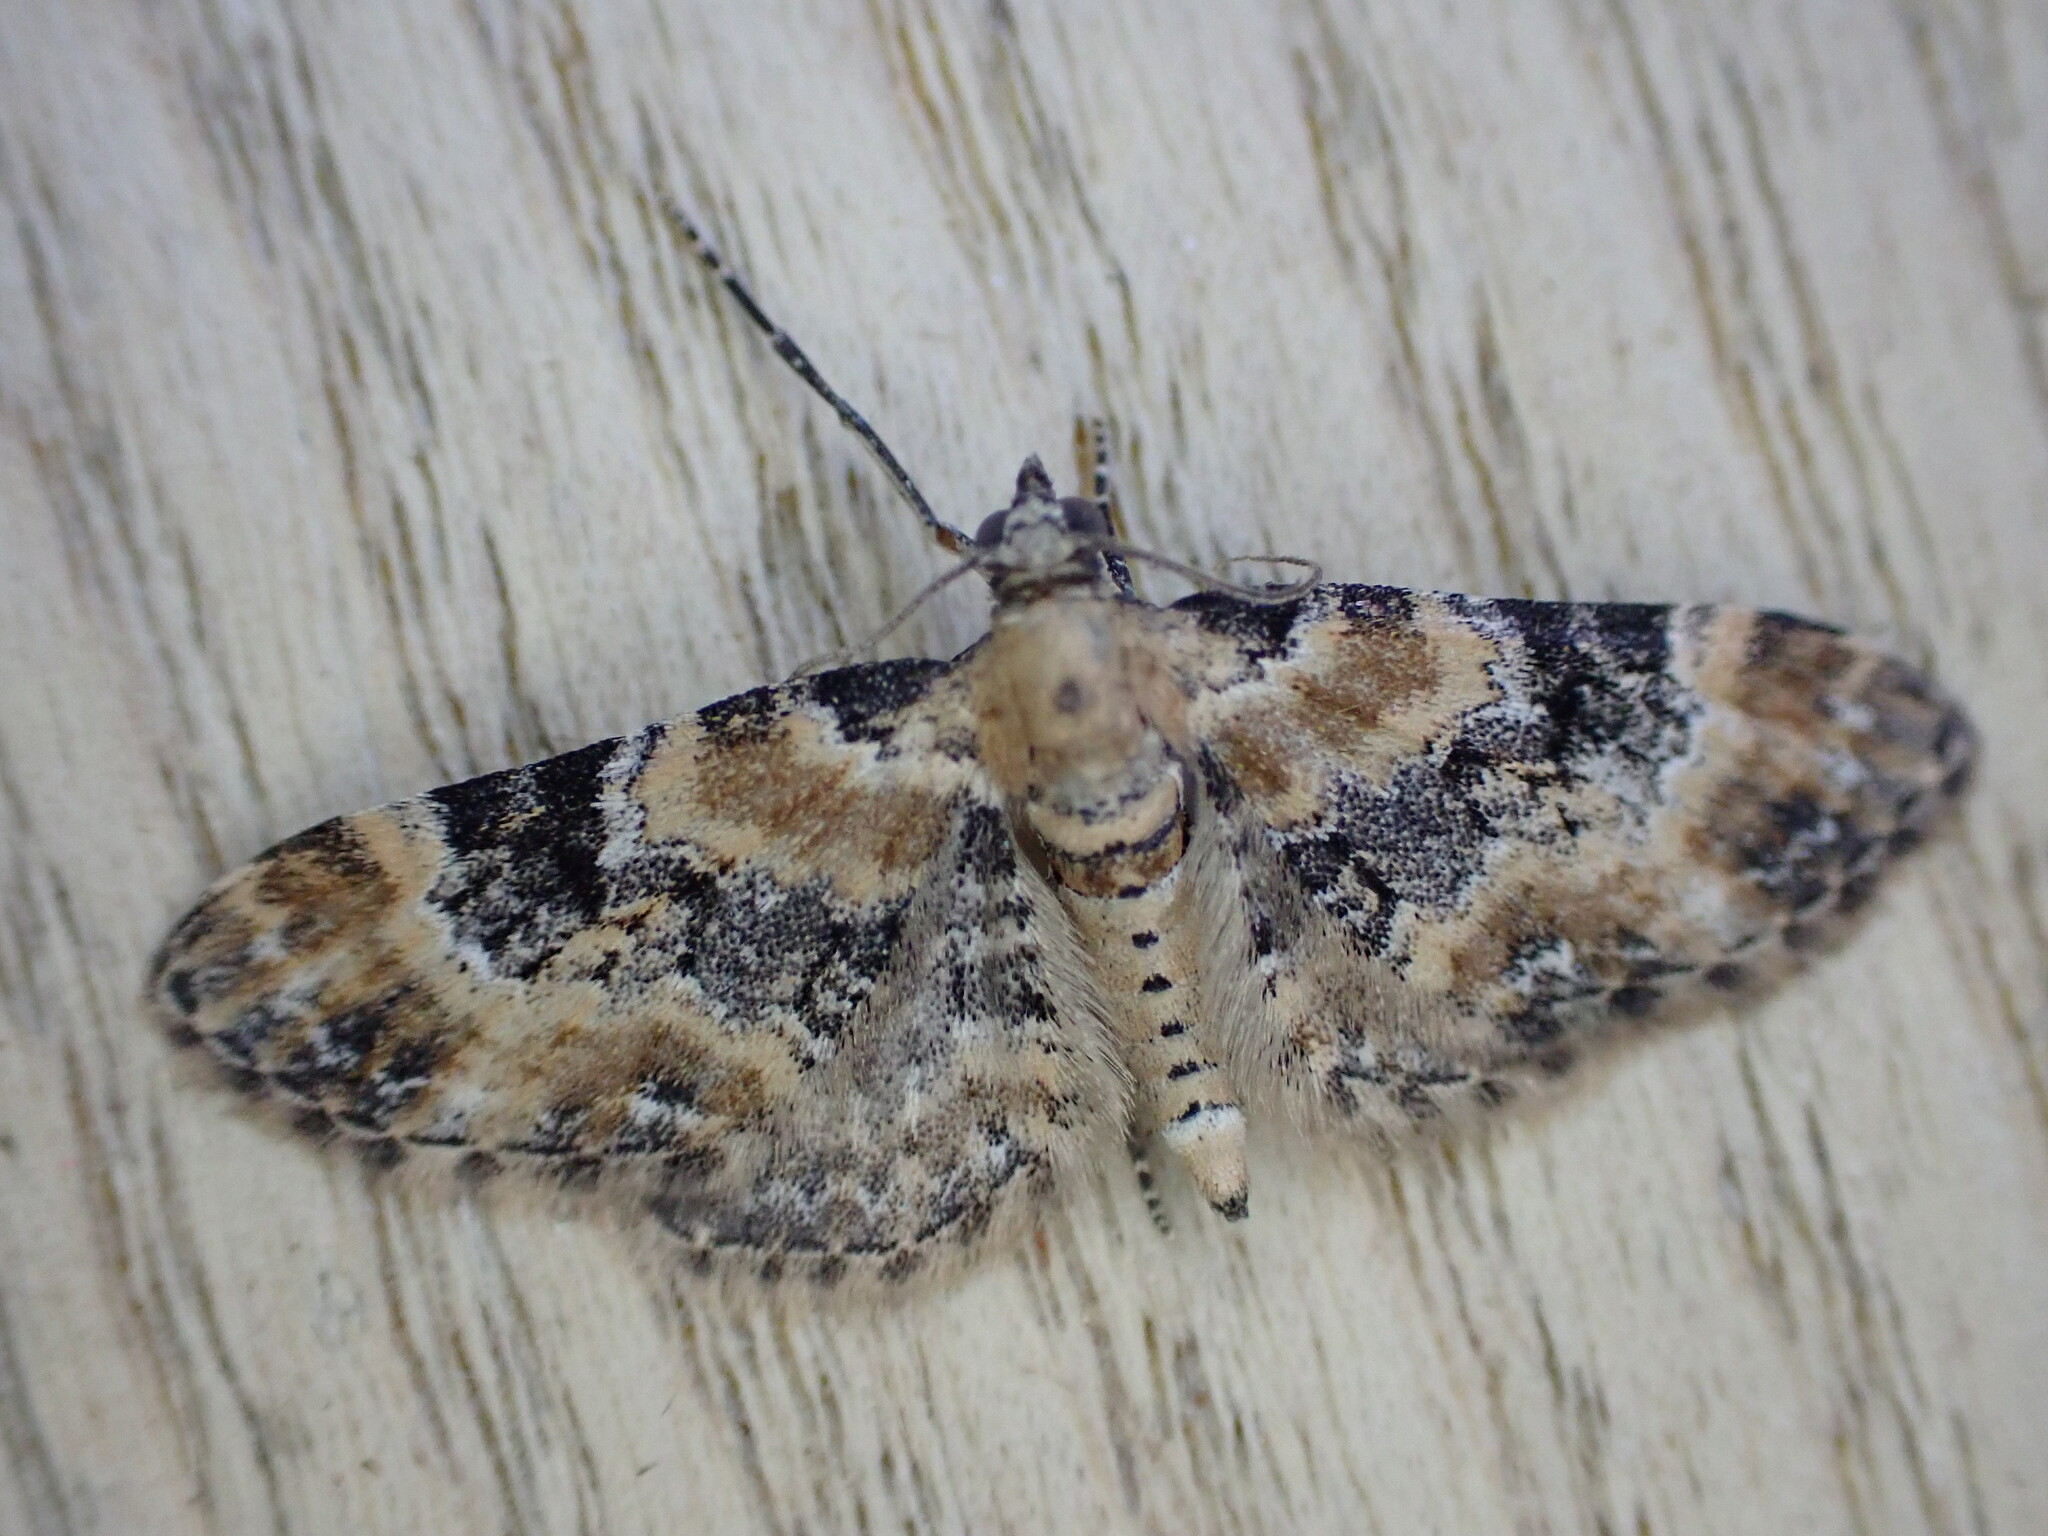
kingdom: Animalia
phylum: Arthropoda
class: Insecta
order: Lepidoptera
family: Geometridae
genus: Eupithecia
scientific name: Eupithecia pulchellata
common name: Foxglove pug
